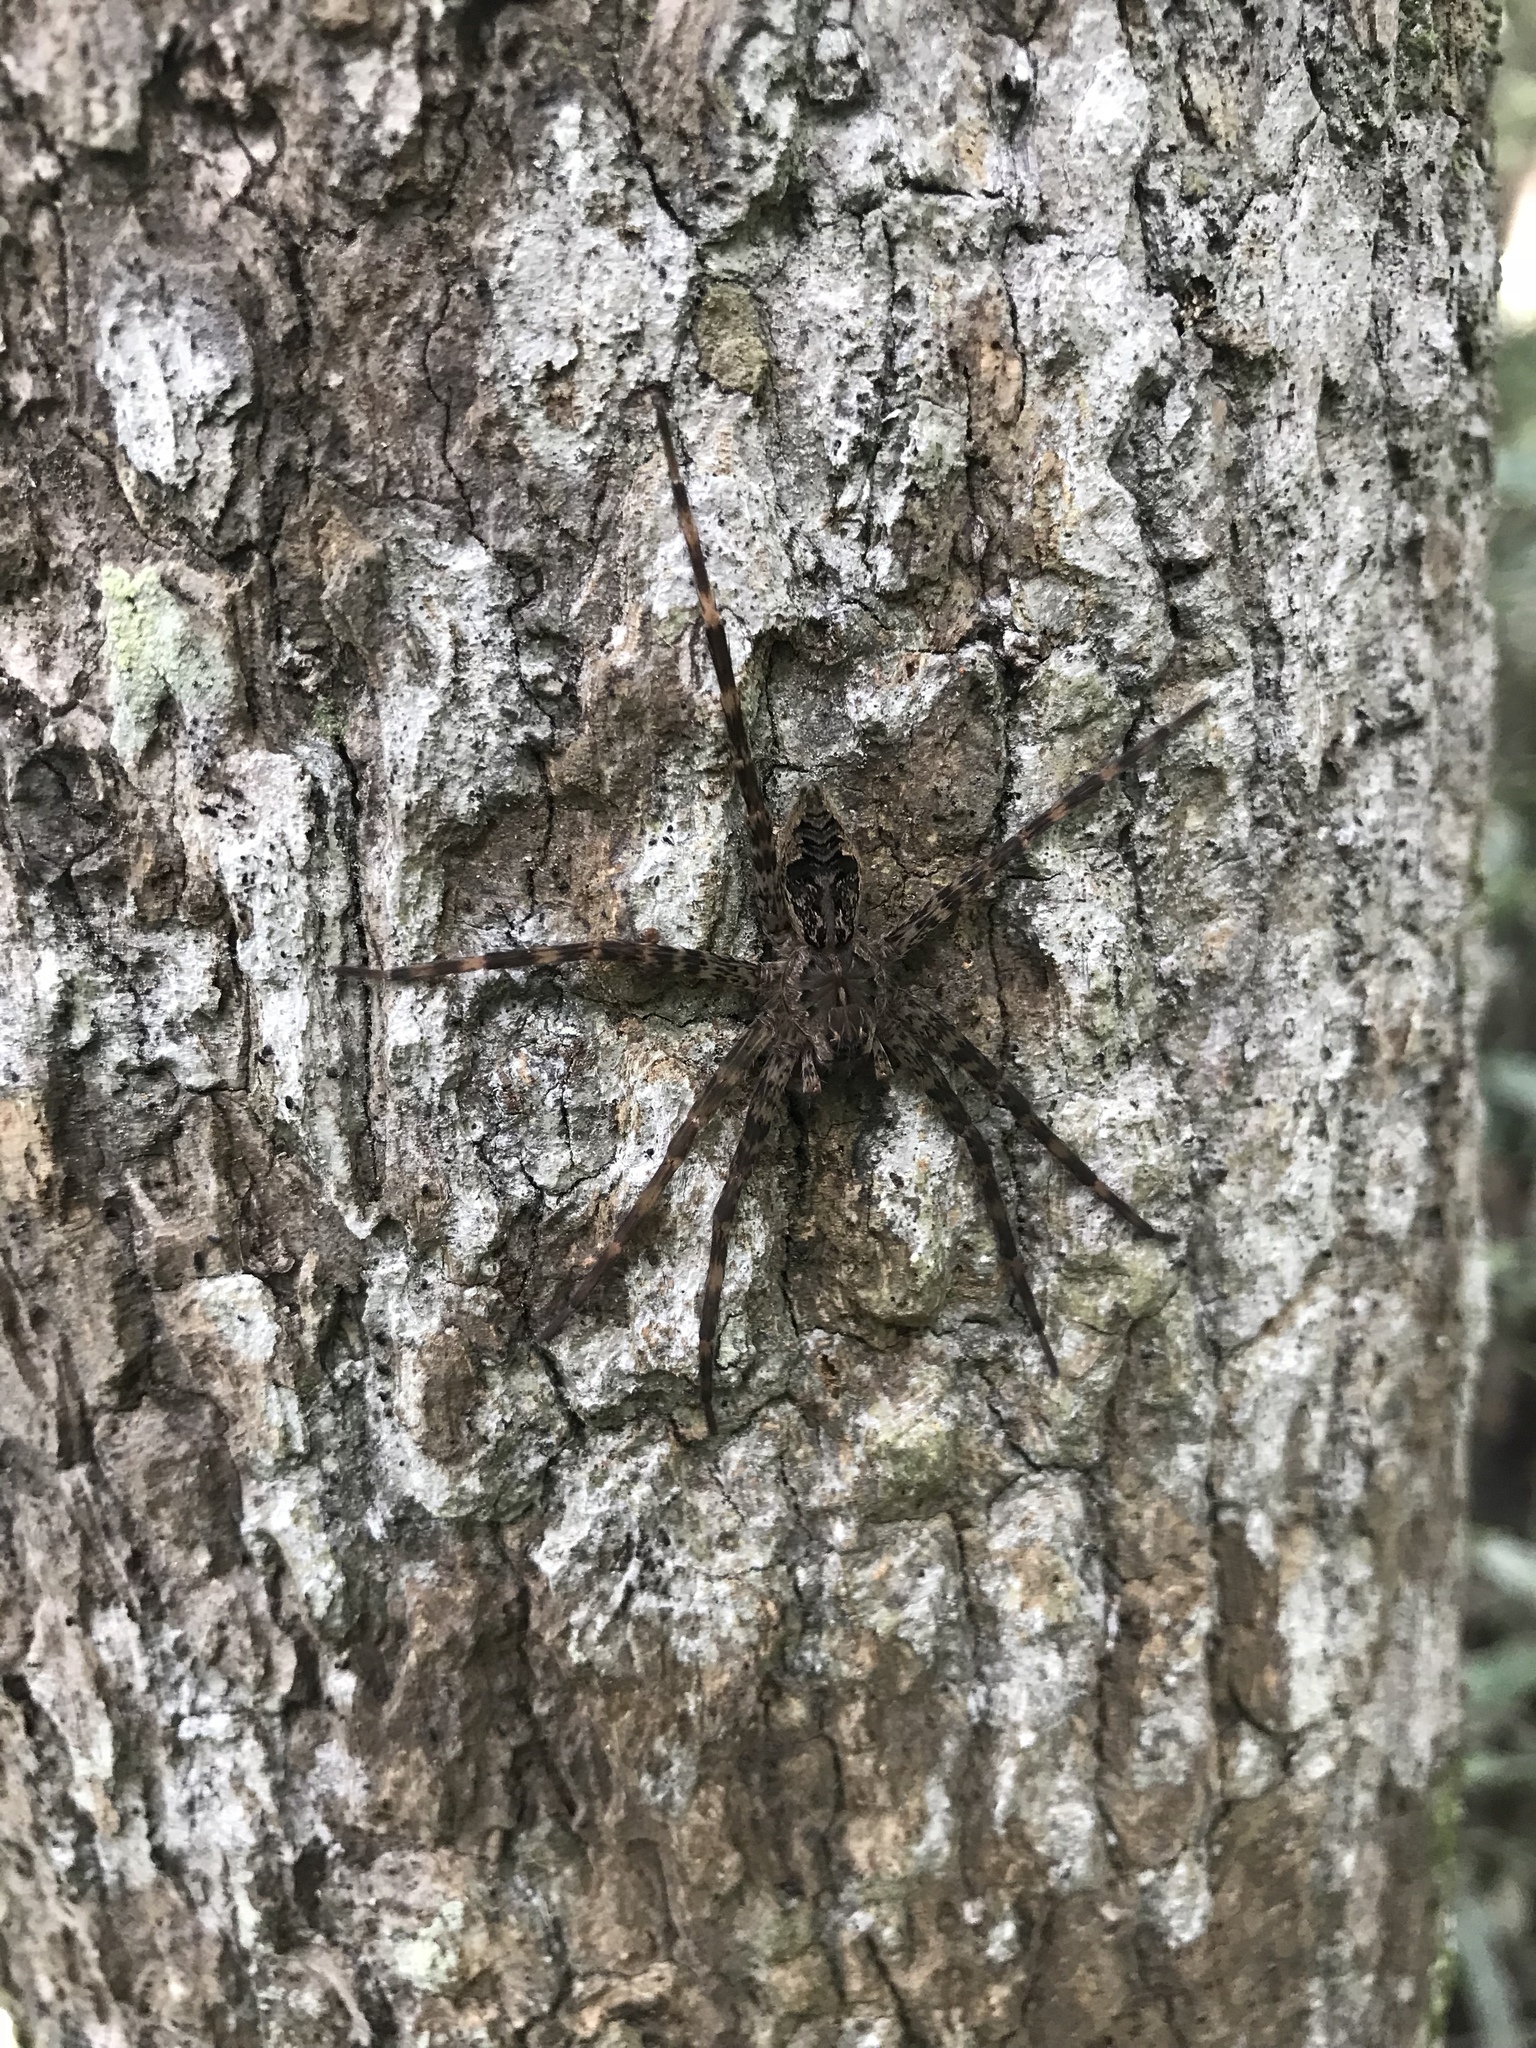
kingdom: Animalia
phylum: Arthropoda
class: Arachnida
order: Araneae
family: Pisauridae
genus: Dolomedes
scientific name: Dolomedes tenebrosus
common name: Dark fishing spider
